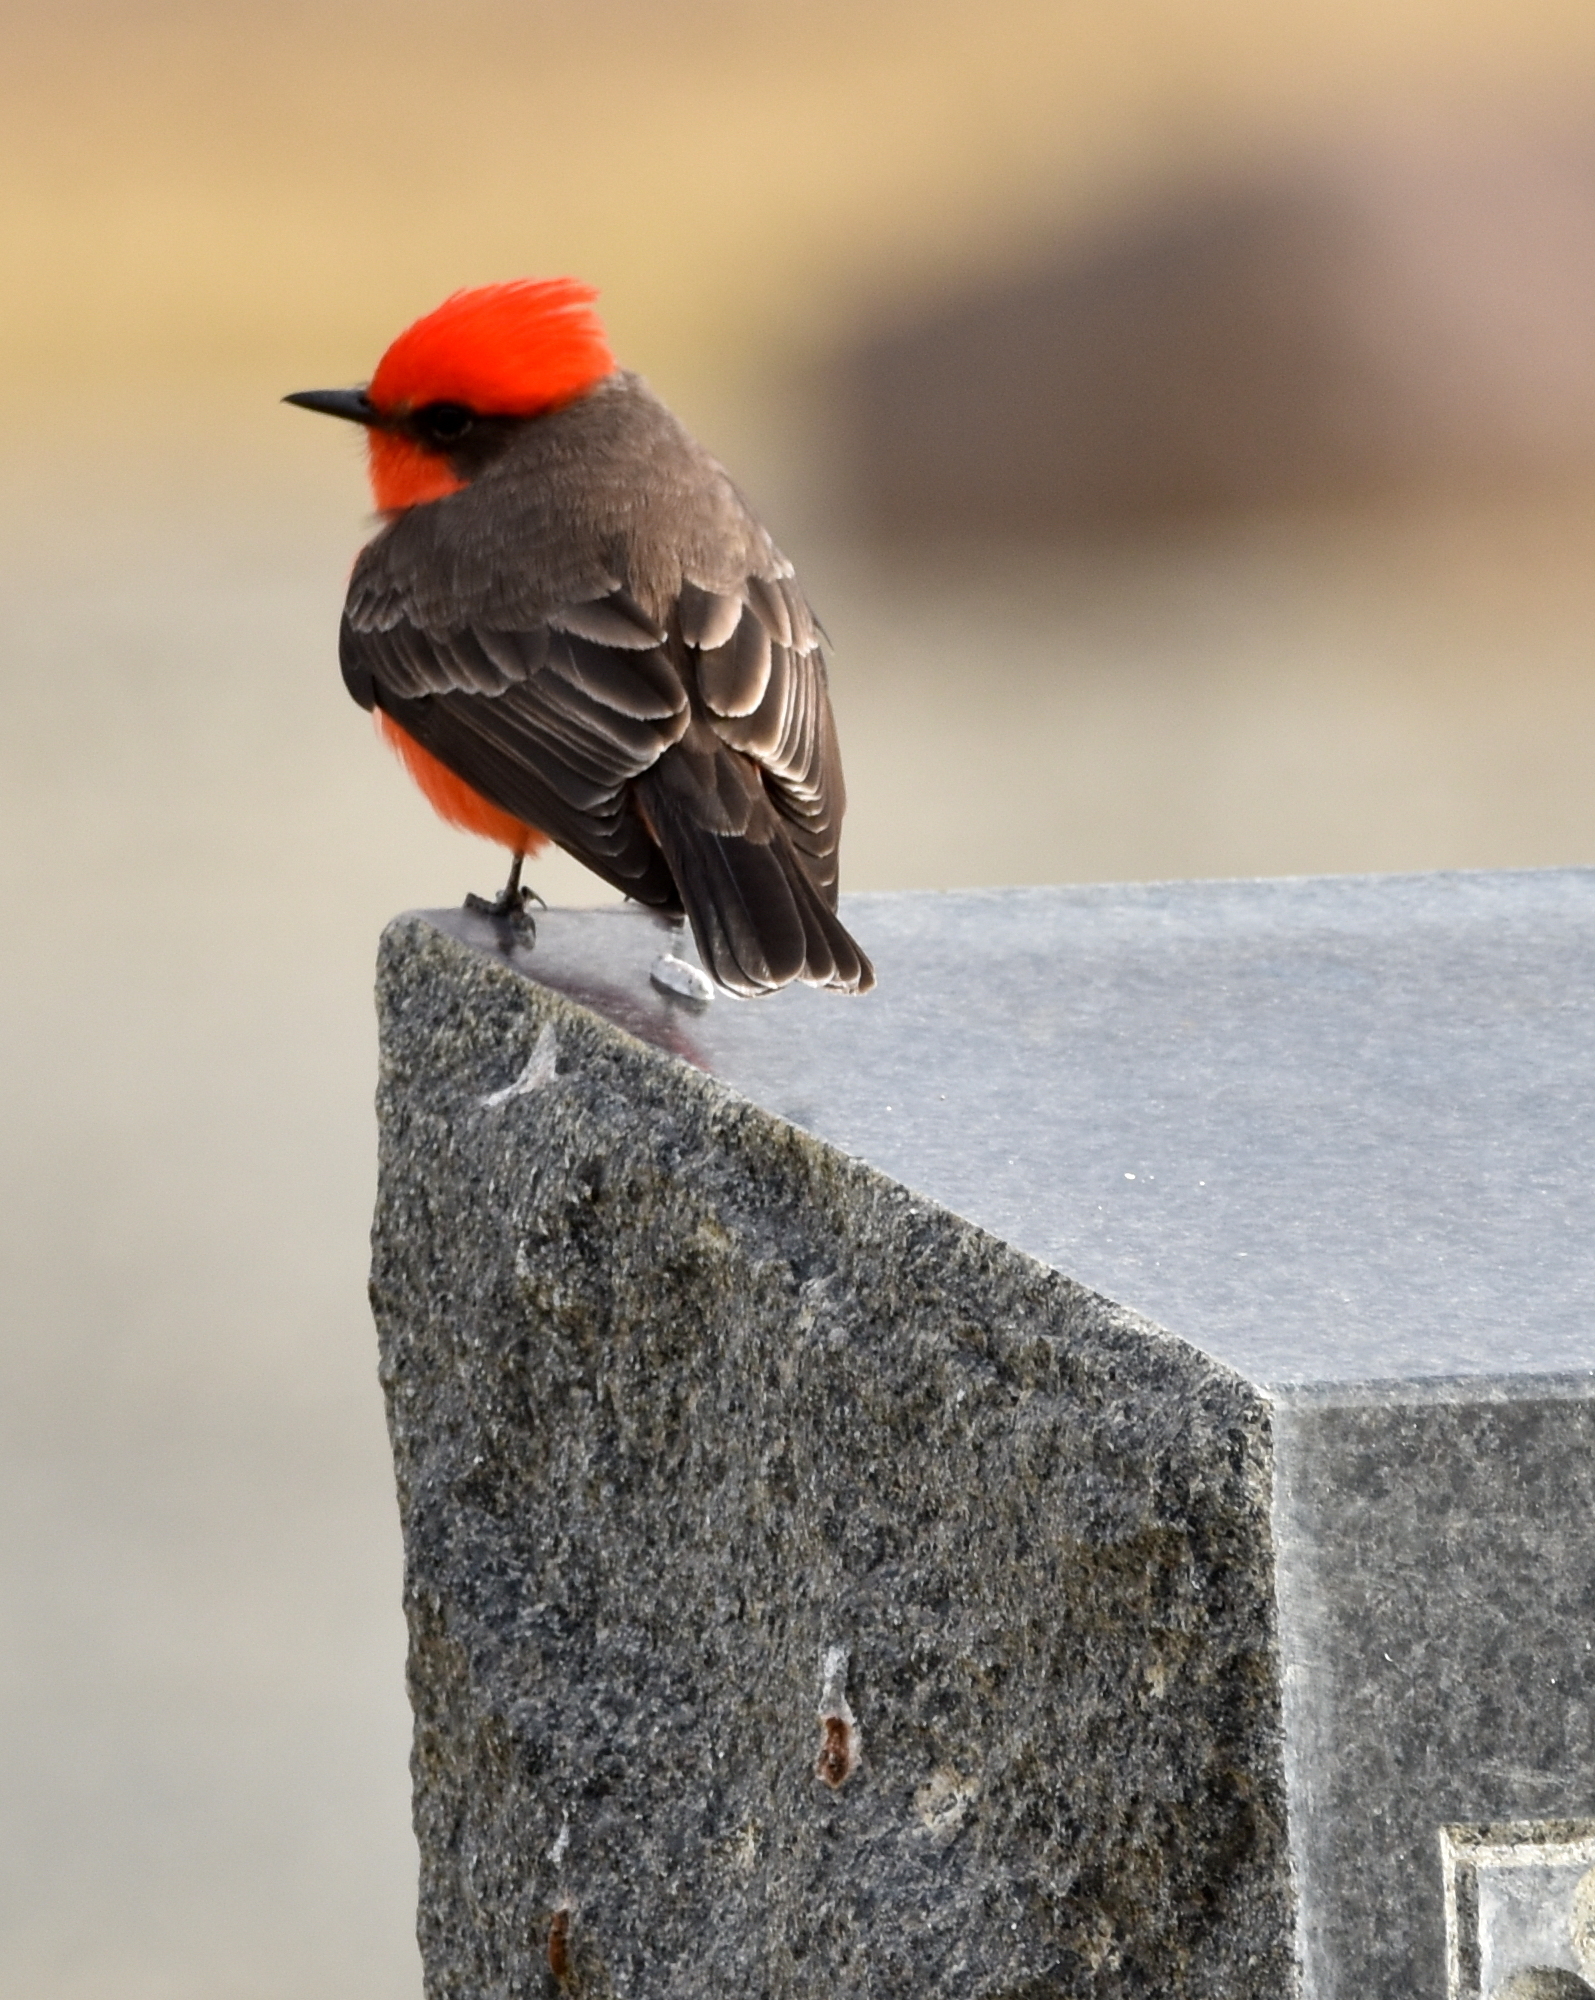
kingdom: Animalia
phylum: Chordata
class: Aves
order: Passeriformes
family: Tyrannidae
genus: Pyrocephalus
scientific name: Pyrocephalus rubinus
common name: Vermilion flycatcher
